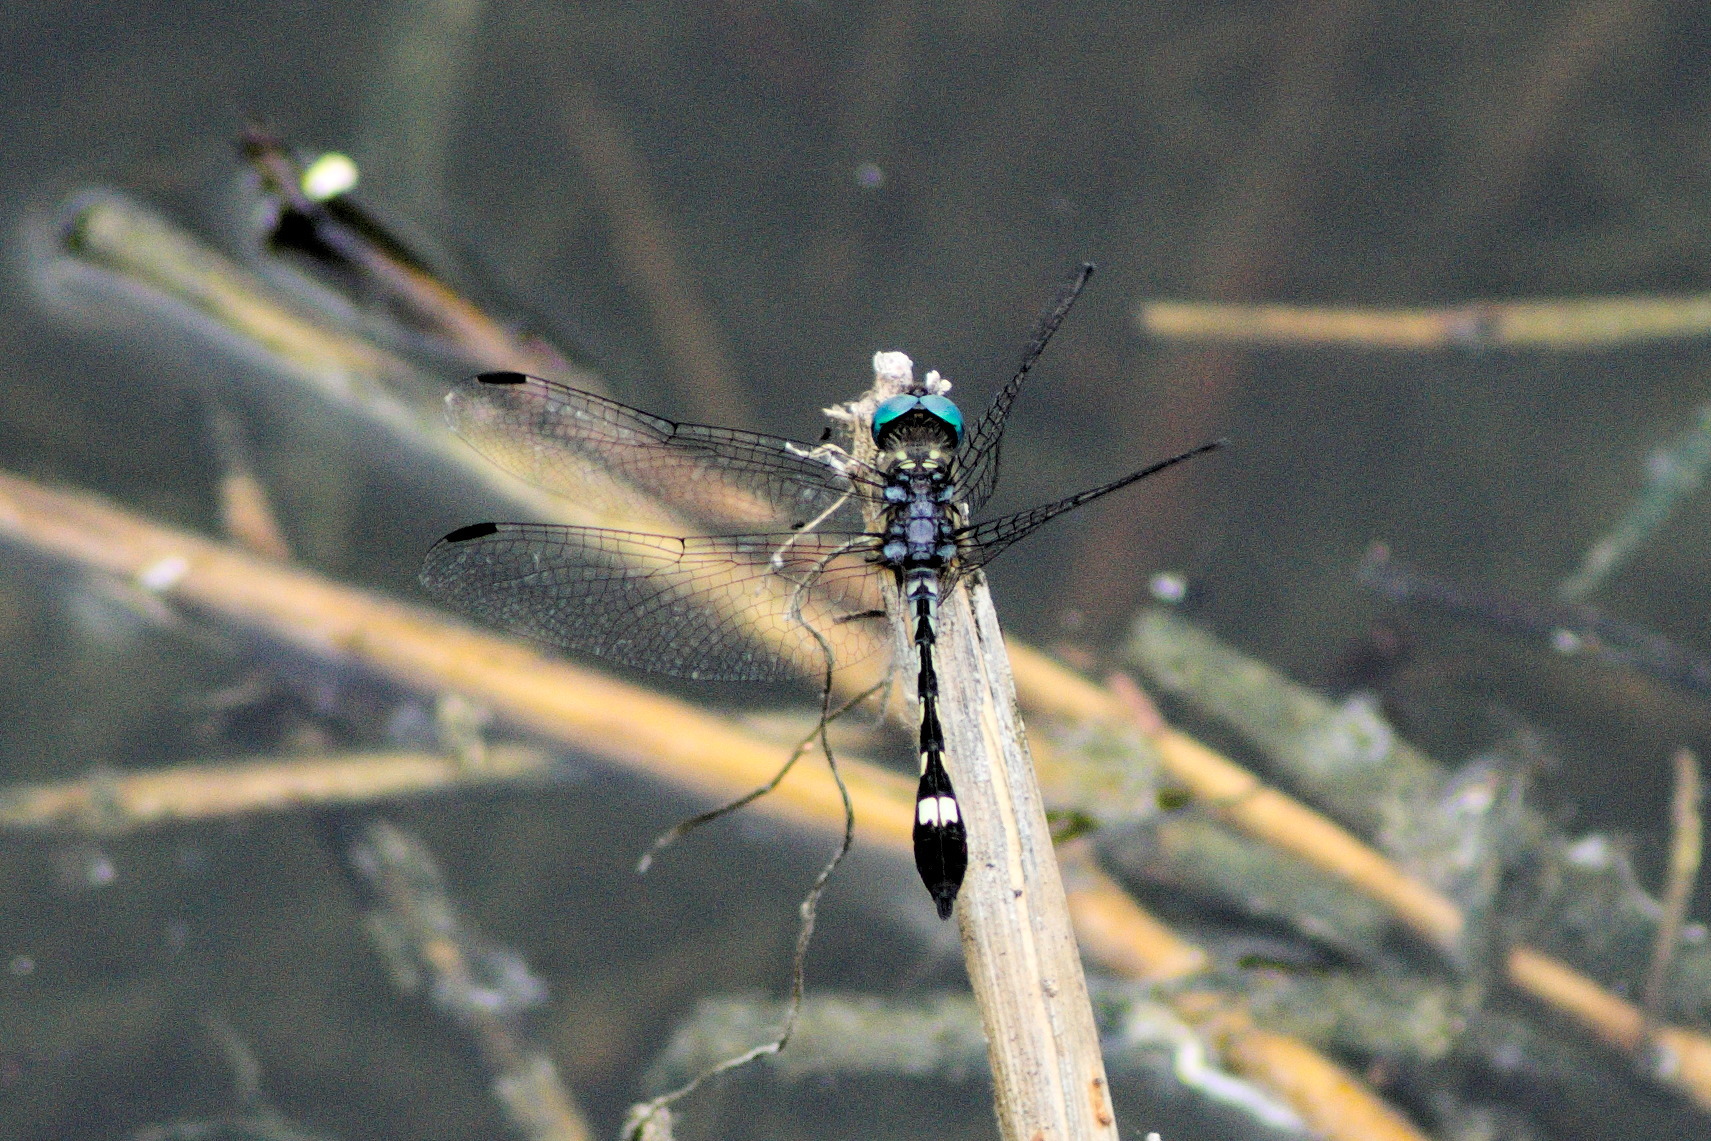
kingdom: Animalia
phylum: Arthropoda
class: Insecta
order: Odonata
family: Libellulidae
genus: Micrathyria
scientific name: Micrathyria hagenii
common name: Thornbush dasher
